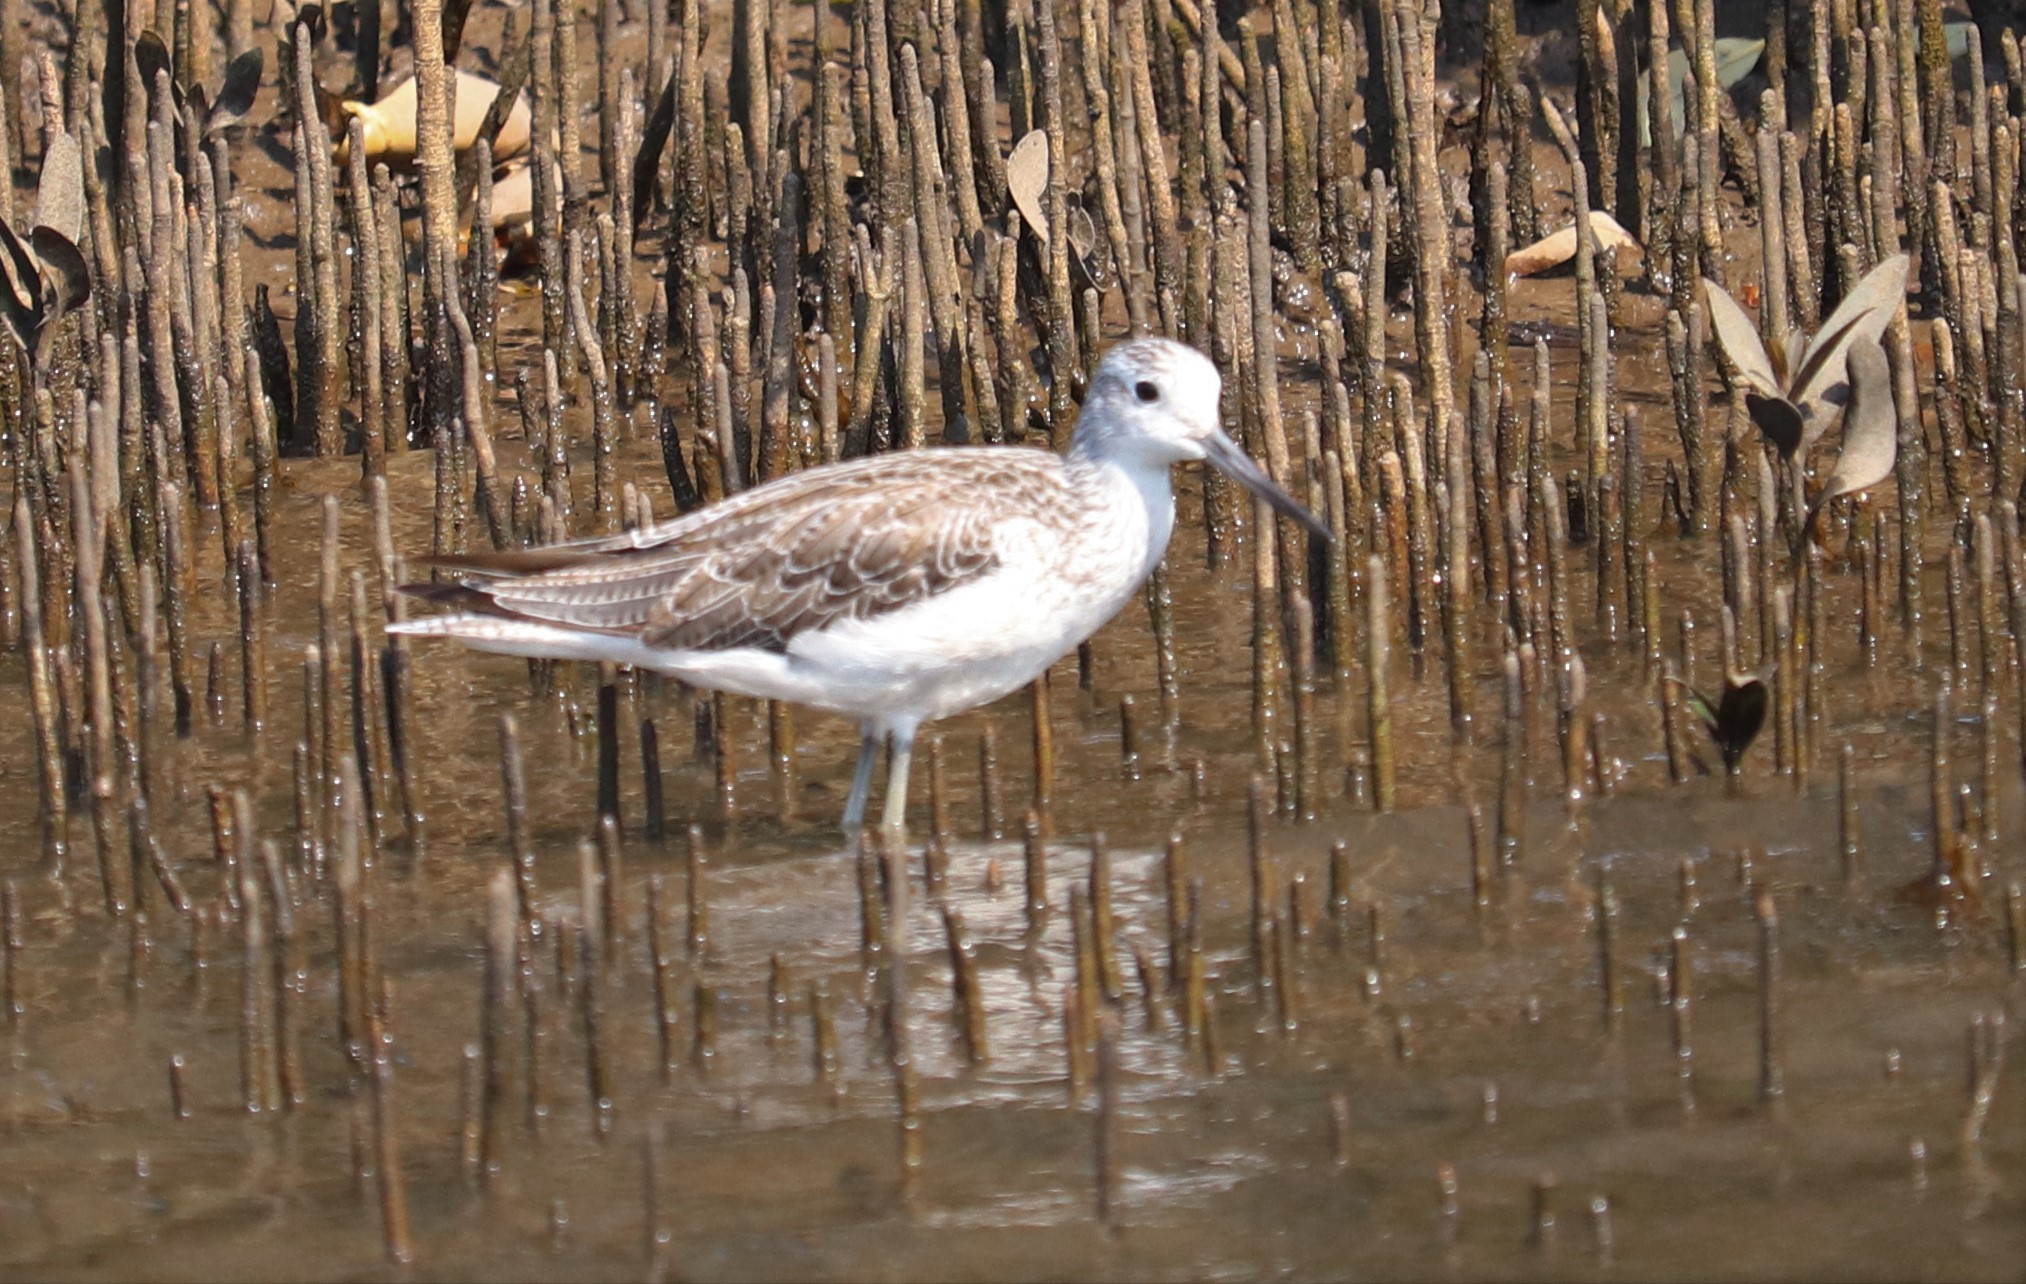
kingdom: Animalia
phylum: Chordata
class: Aves
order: Charadriiformes
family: Scolopacidae
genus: Tringa
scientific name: Tringa nebularia
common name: Common greenshank
